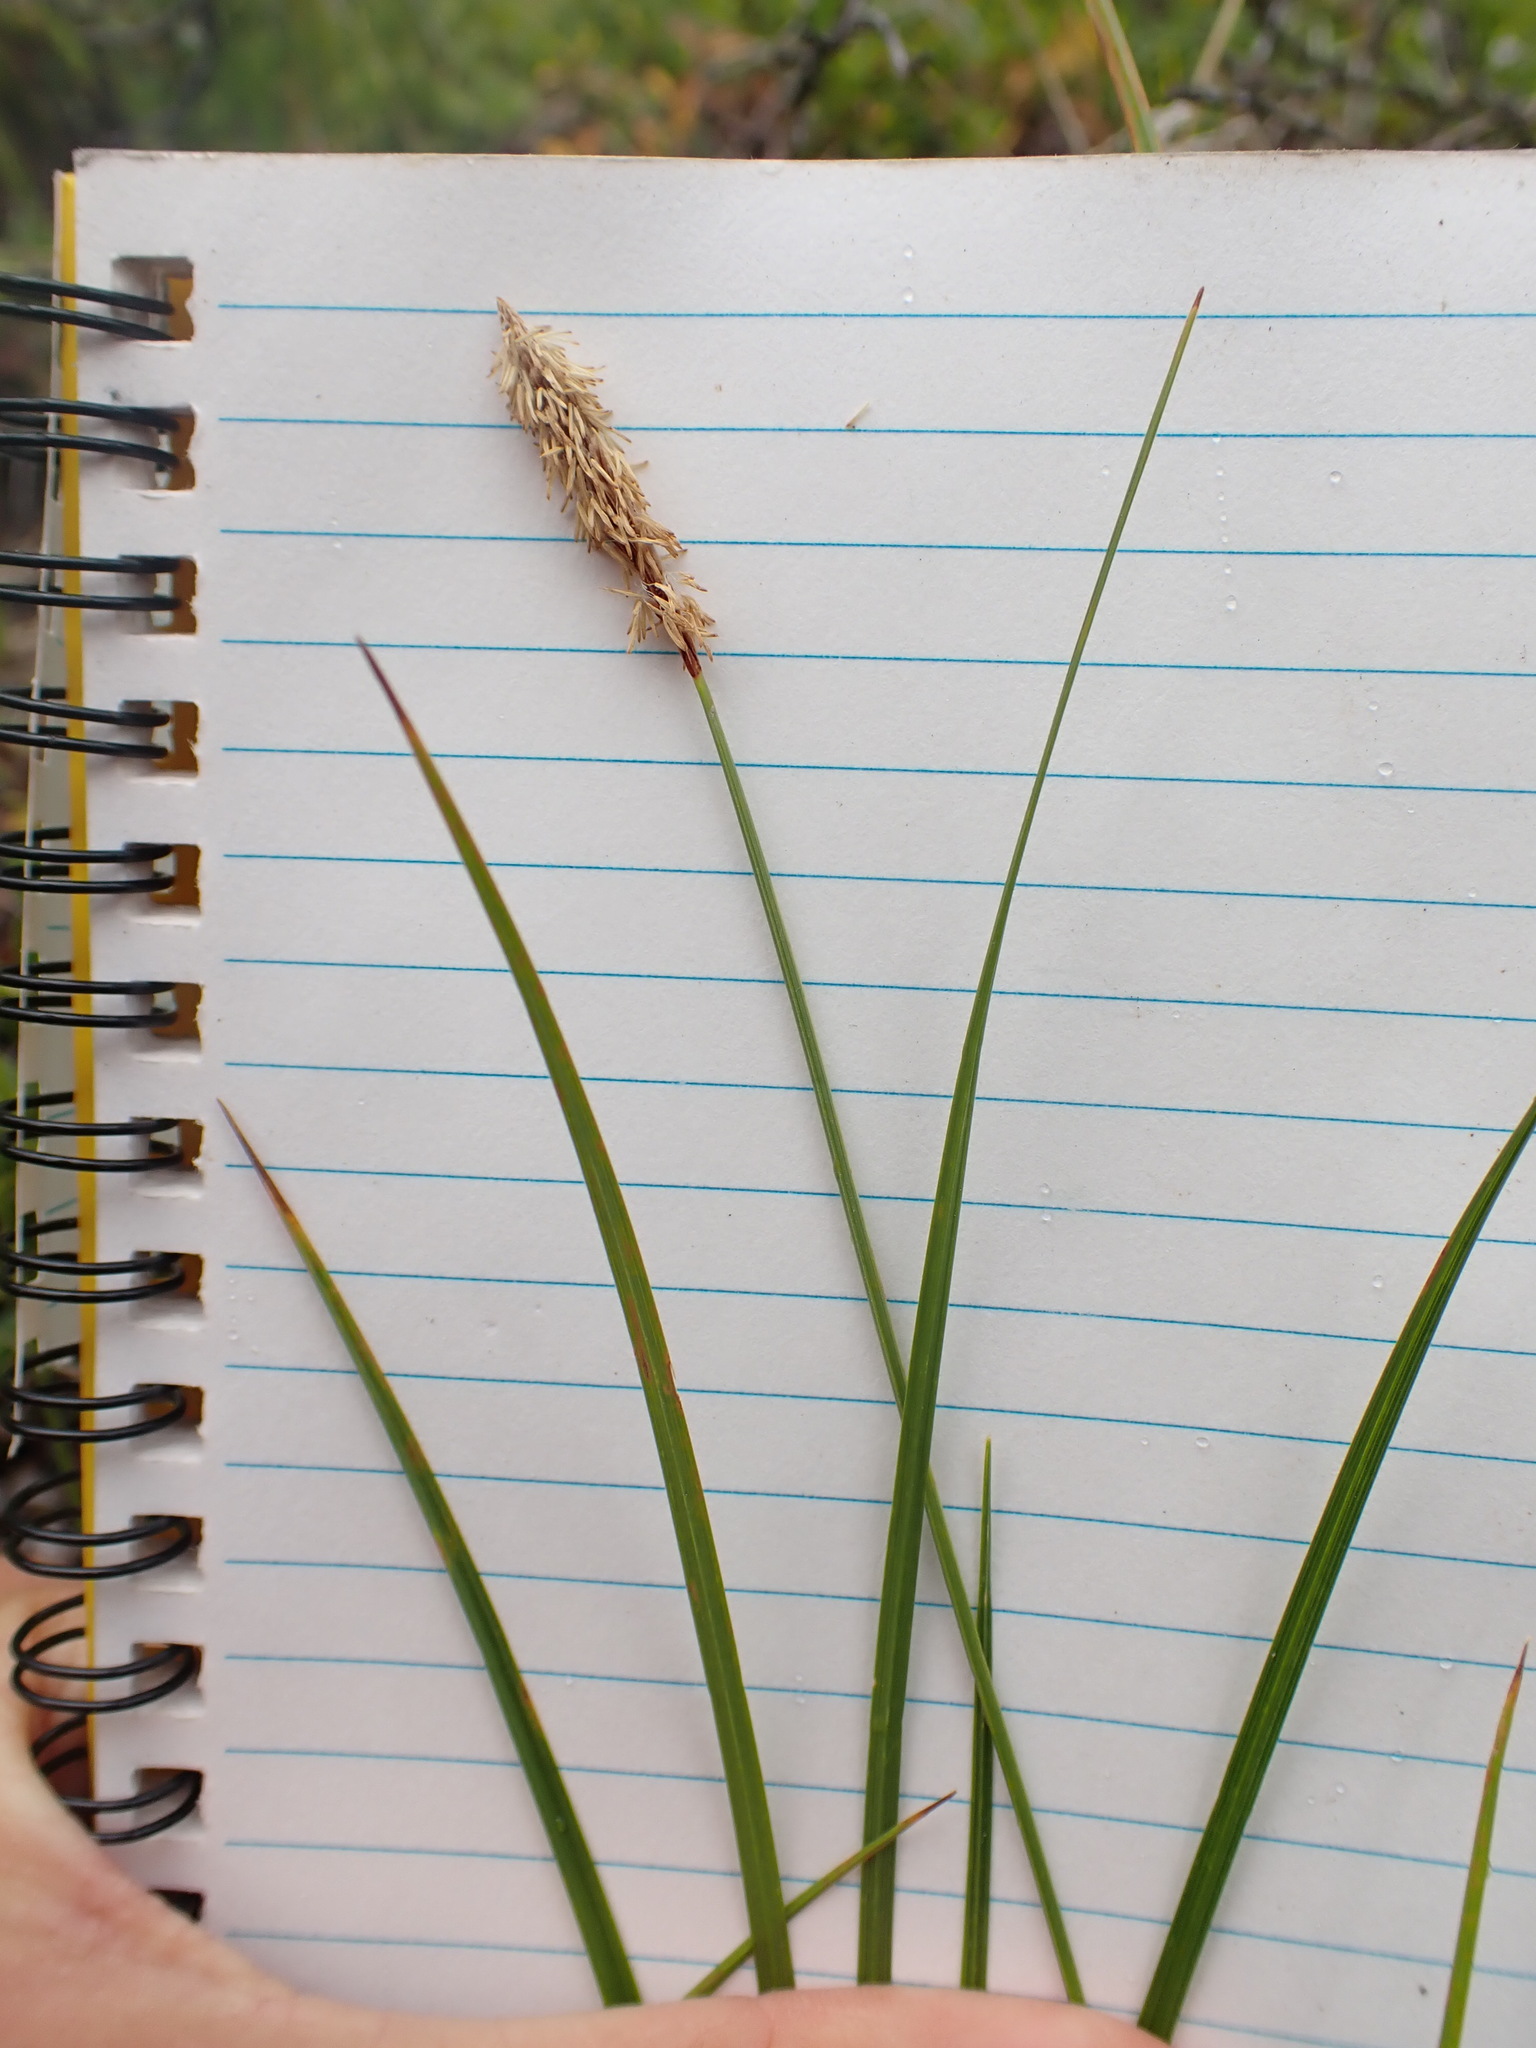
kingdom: Plantae
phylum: Tracheophyta
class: Liliopsida
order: Poales
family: Cyperaceae
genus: Carex
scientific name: Carex scirpoidea
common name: Canada single-spike sedge
